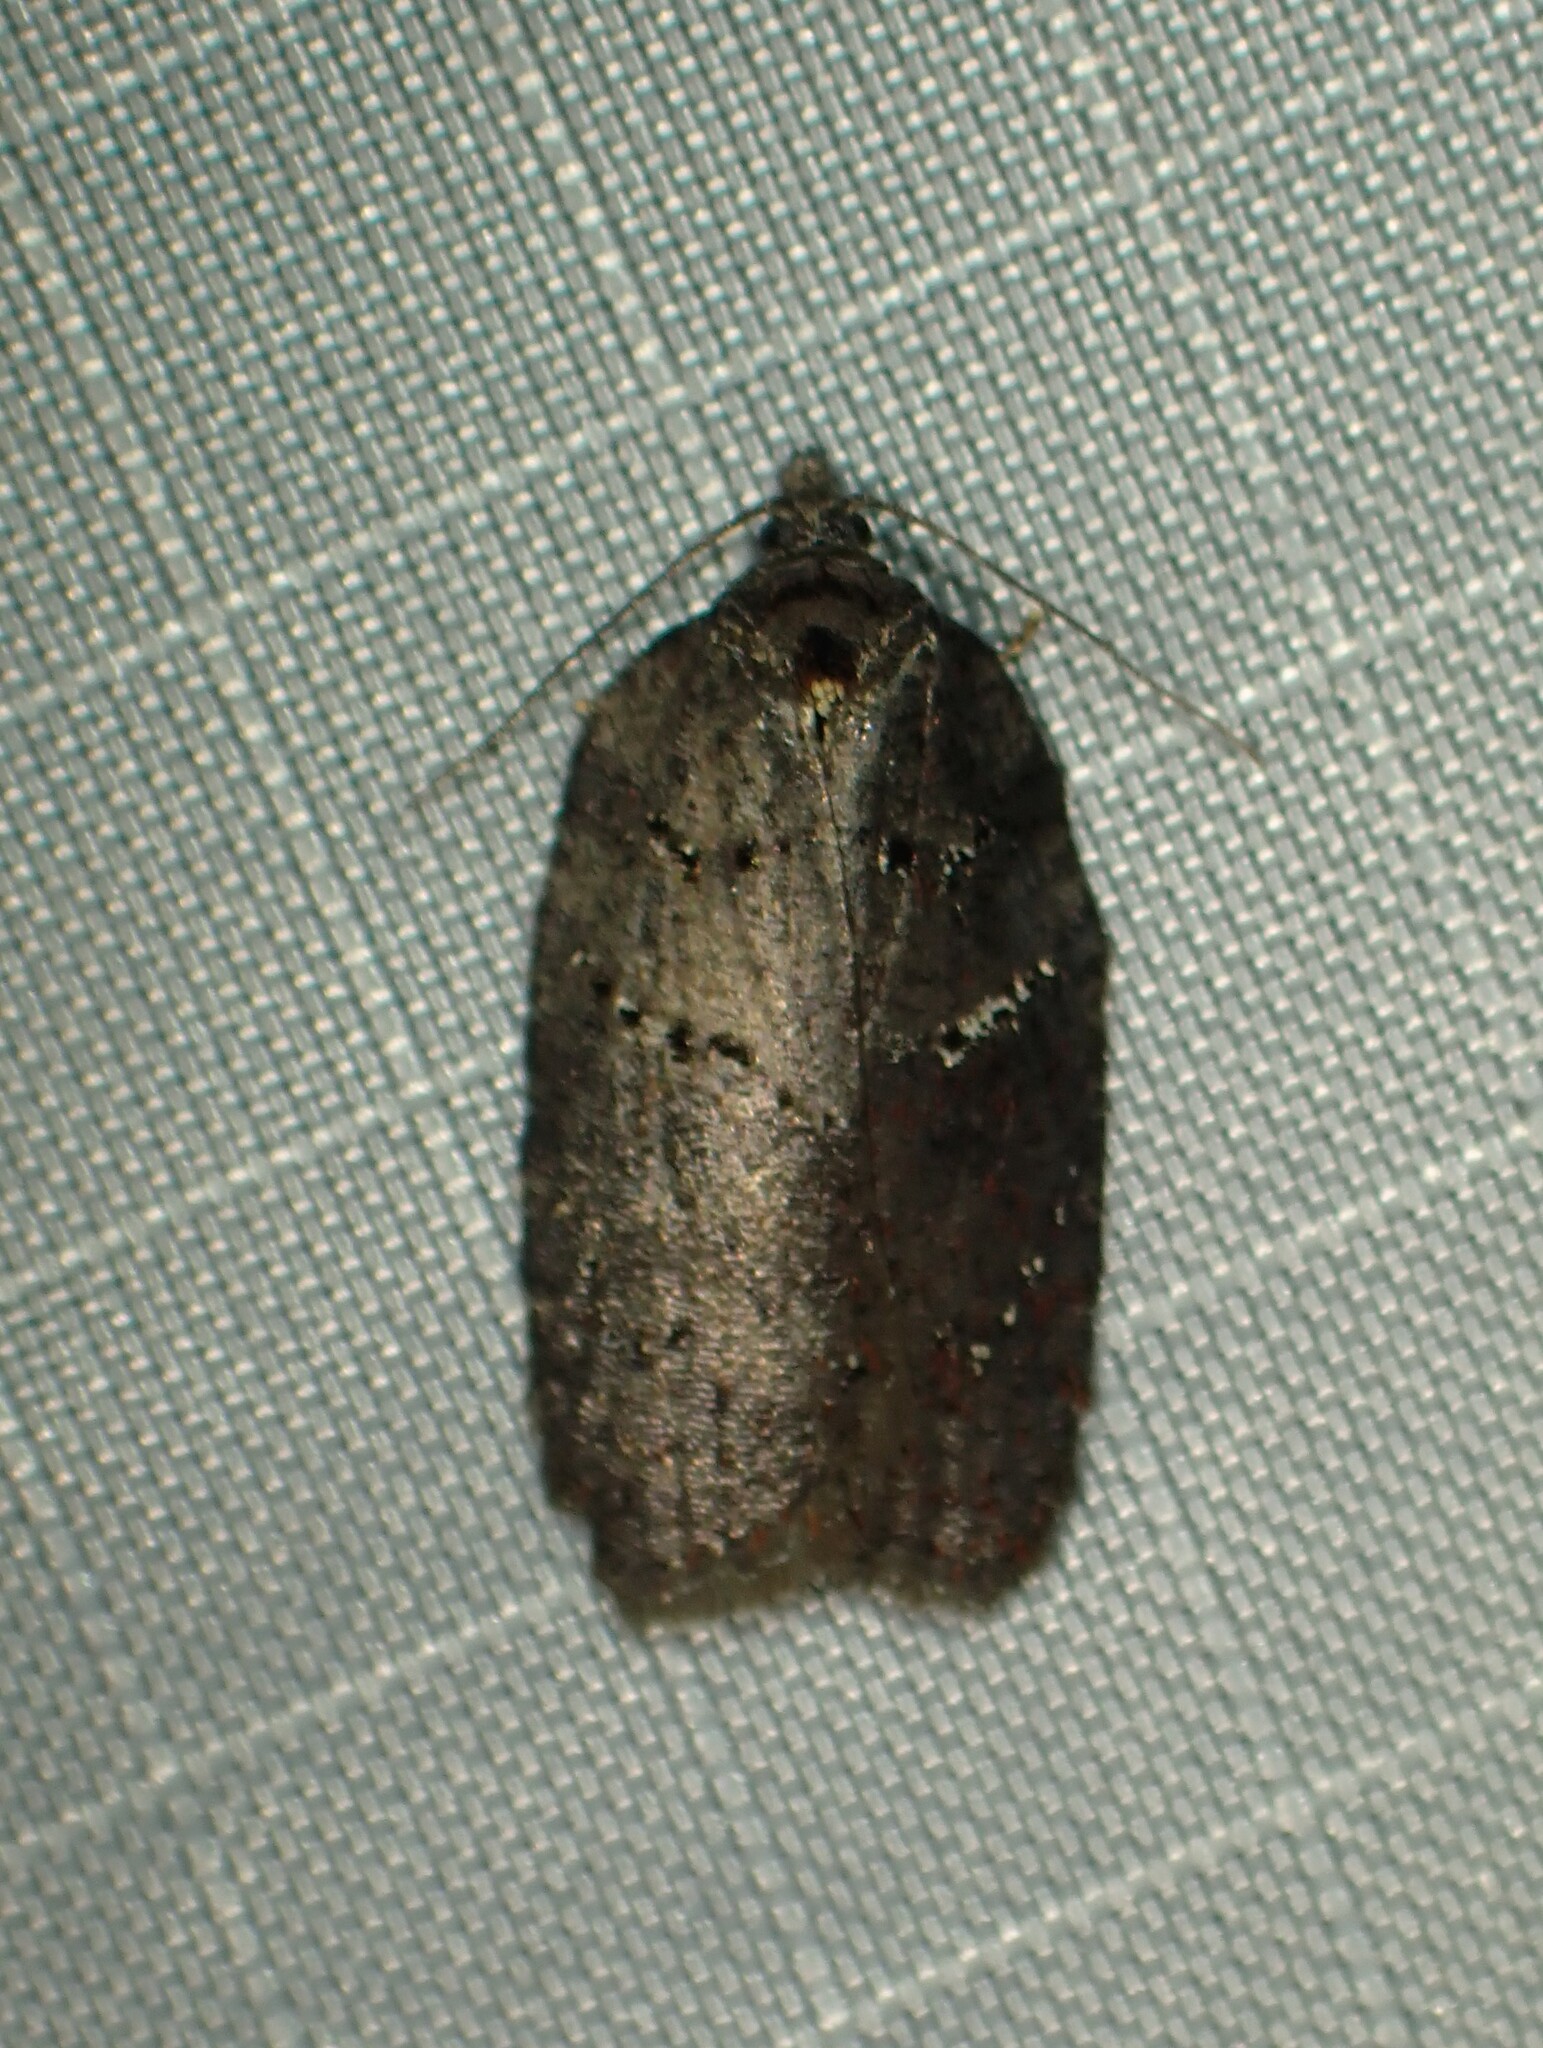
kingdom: Animalia
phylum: Arthropoda
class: Insecta
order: Lepidoptera
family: Tortricidae
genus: Acleris
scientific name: Acleris caliginosana
